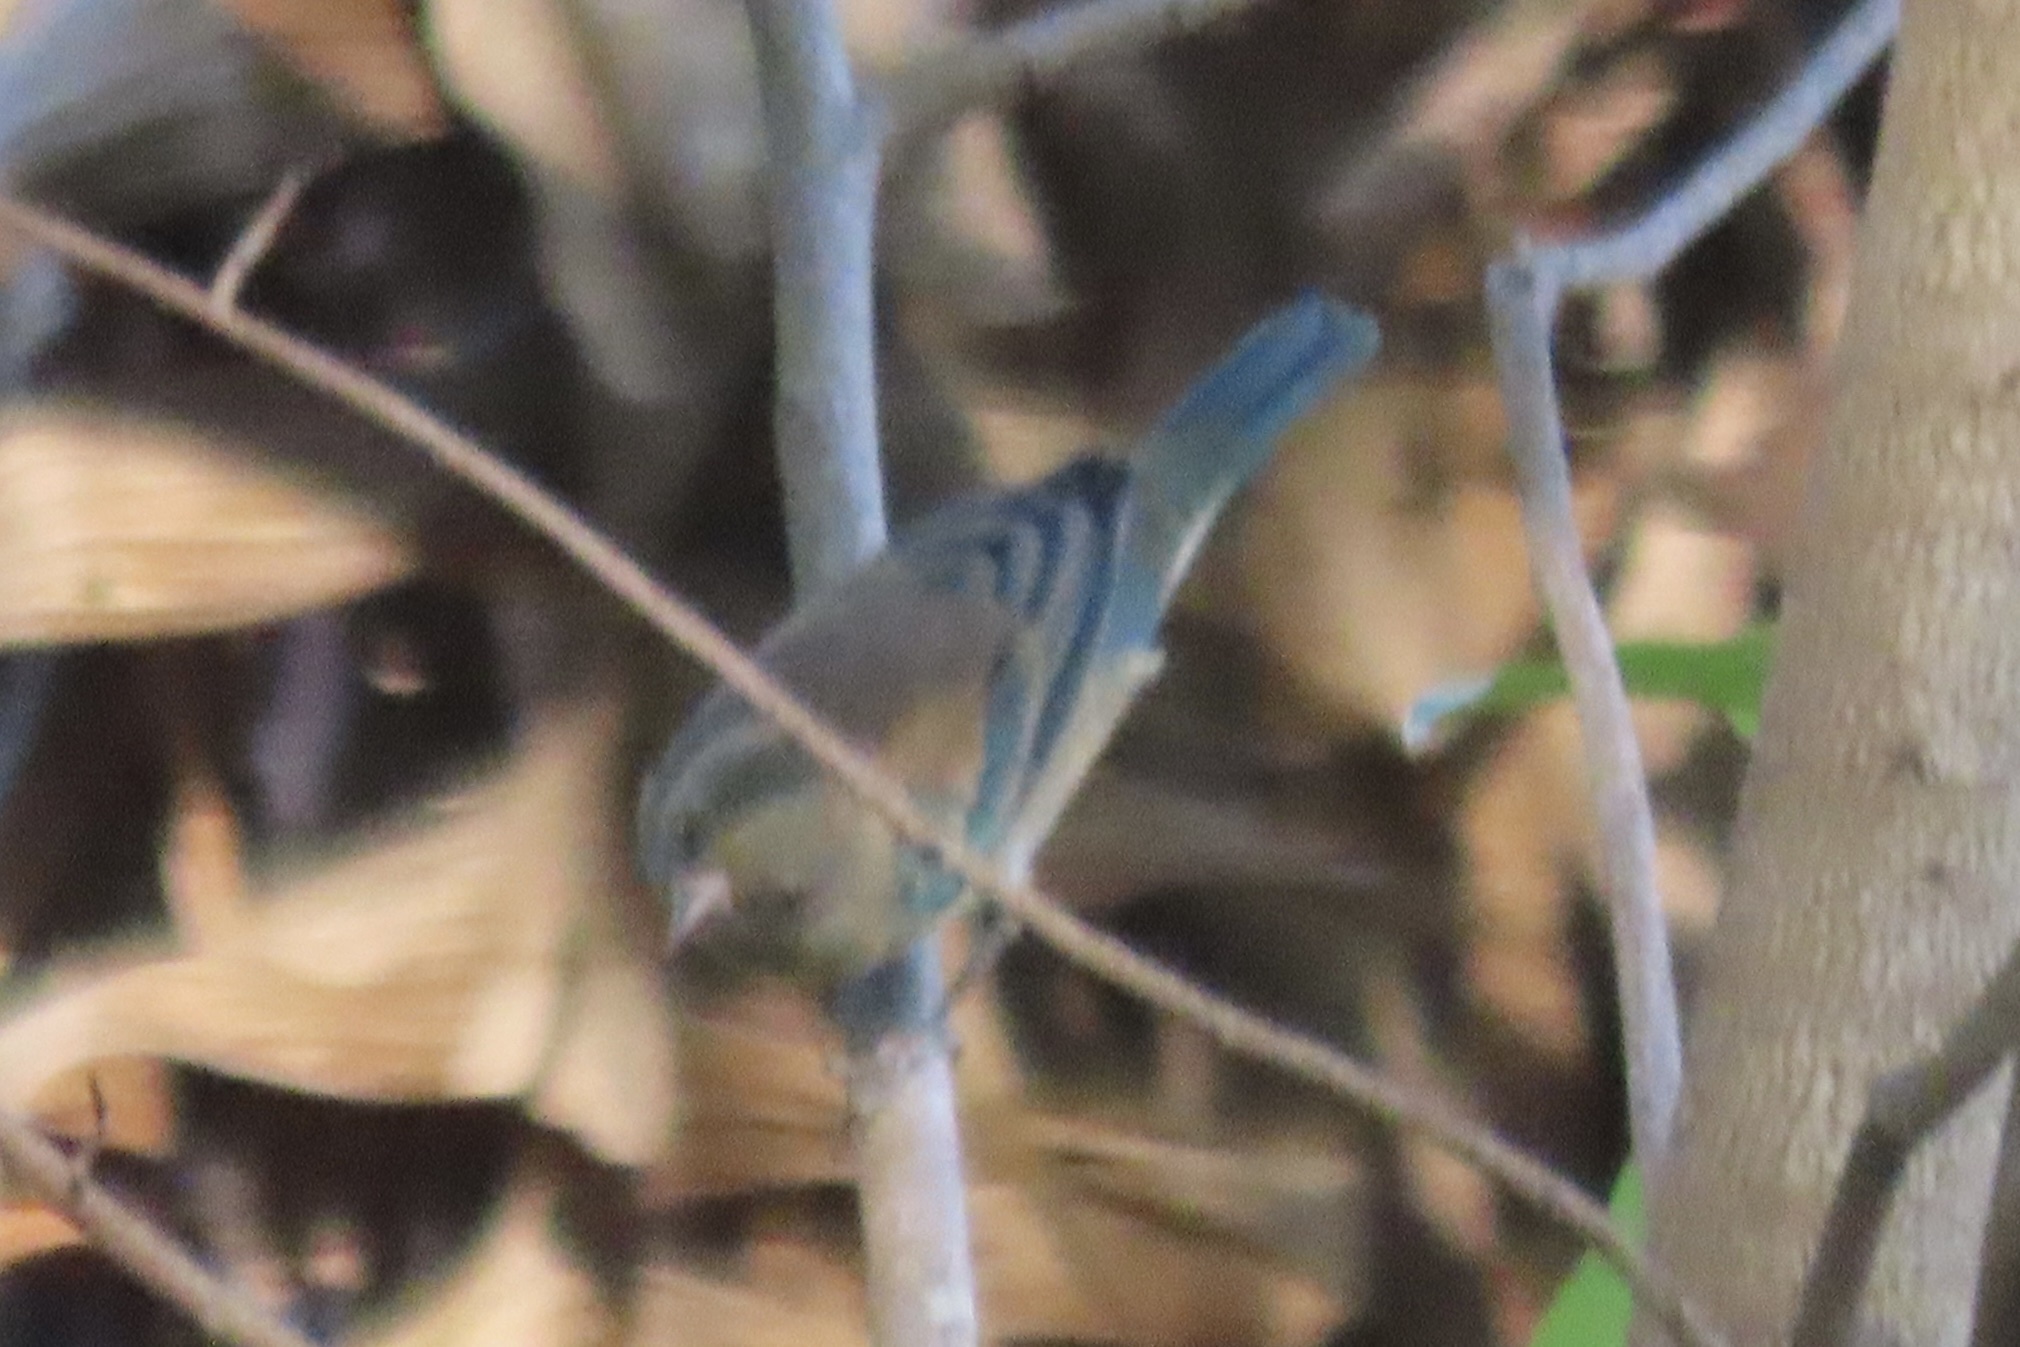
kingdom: Animalia
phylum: Chordata
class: Aves
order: Passeriformes
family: Cardinalidae
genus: Passerina
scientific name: Passerina cyanea
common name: Indigo bunting
